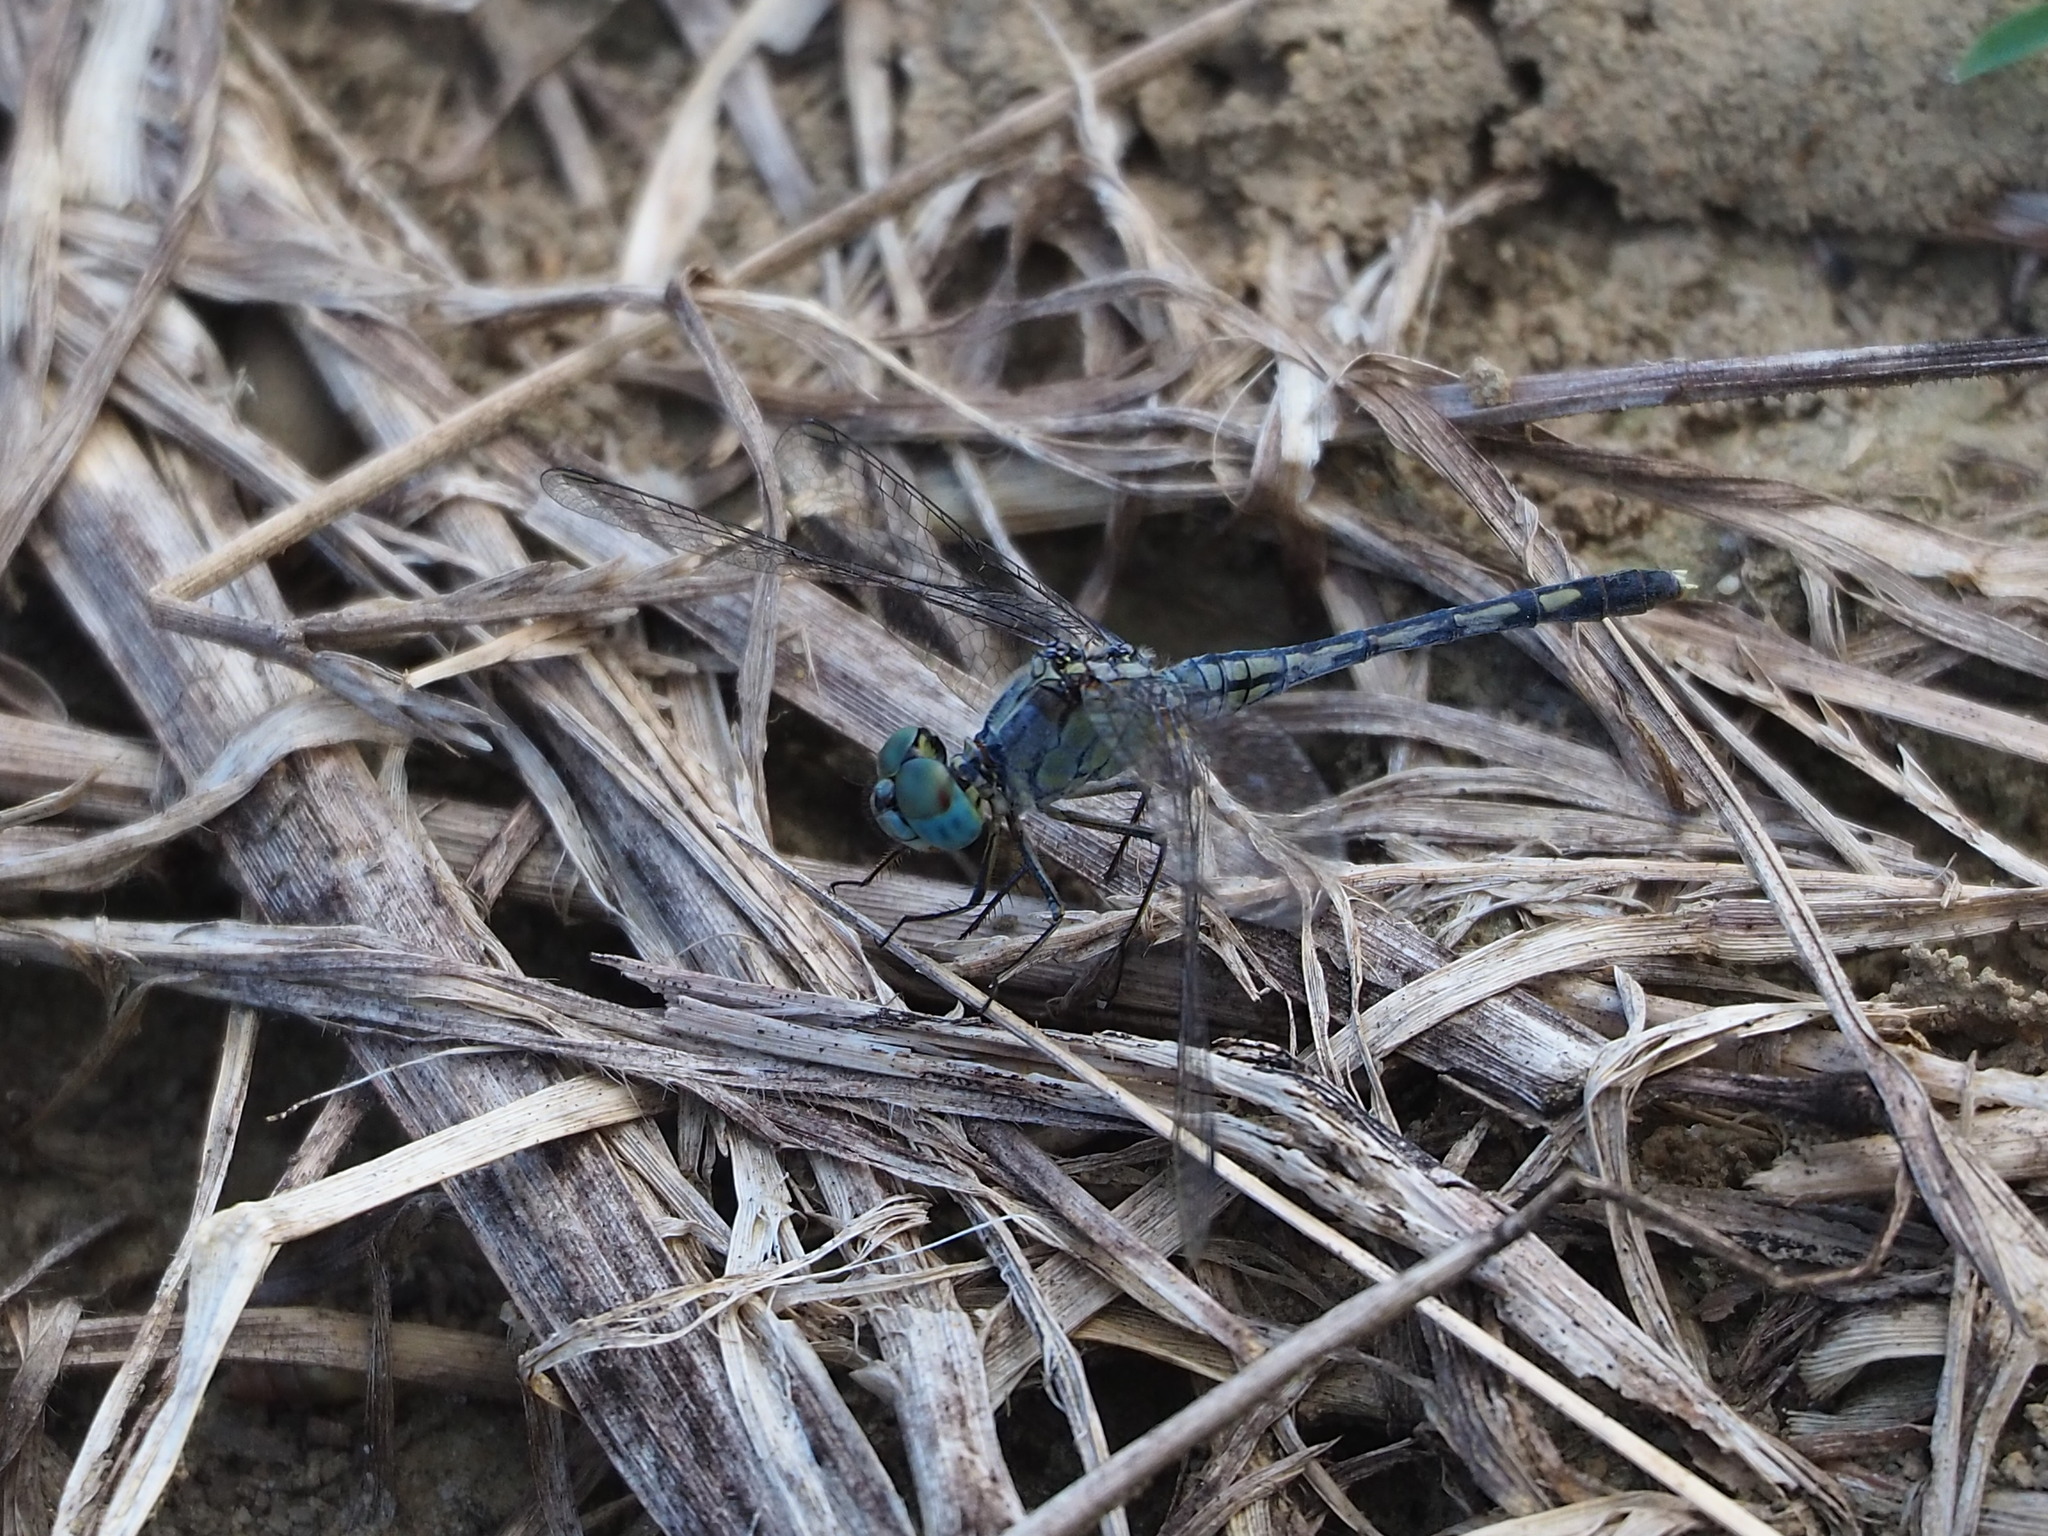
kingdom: Animalia
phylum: Arthropoda
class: Insecta
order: Odonata
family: Libellulidae
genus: Diplacodes
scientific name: Diplacodes trivialis
